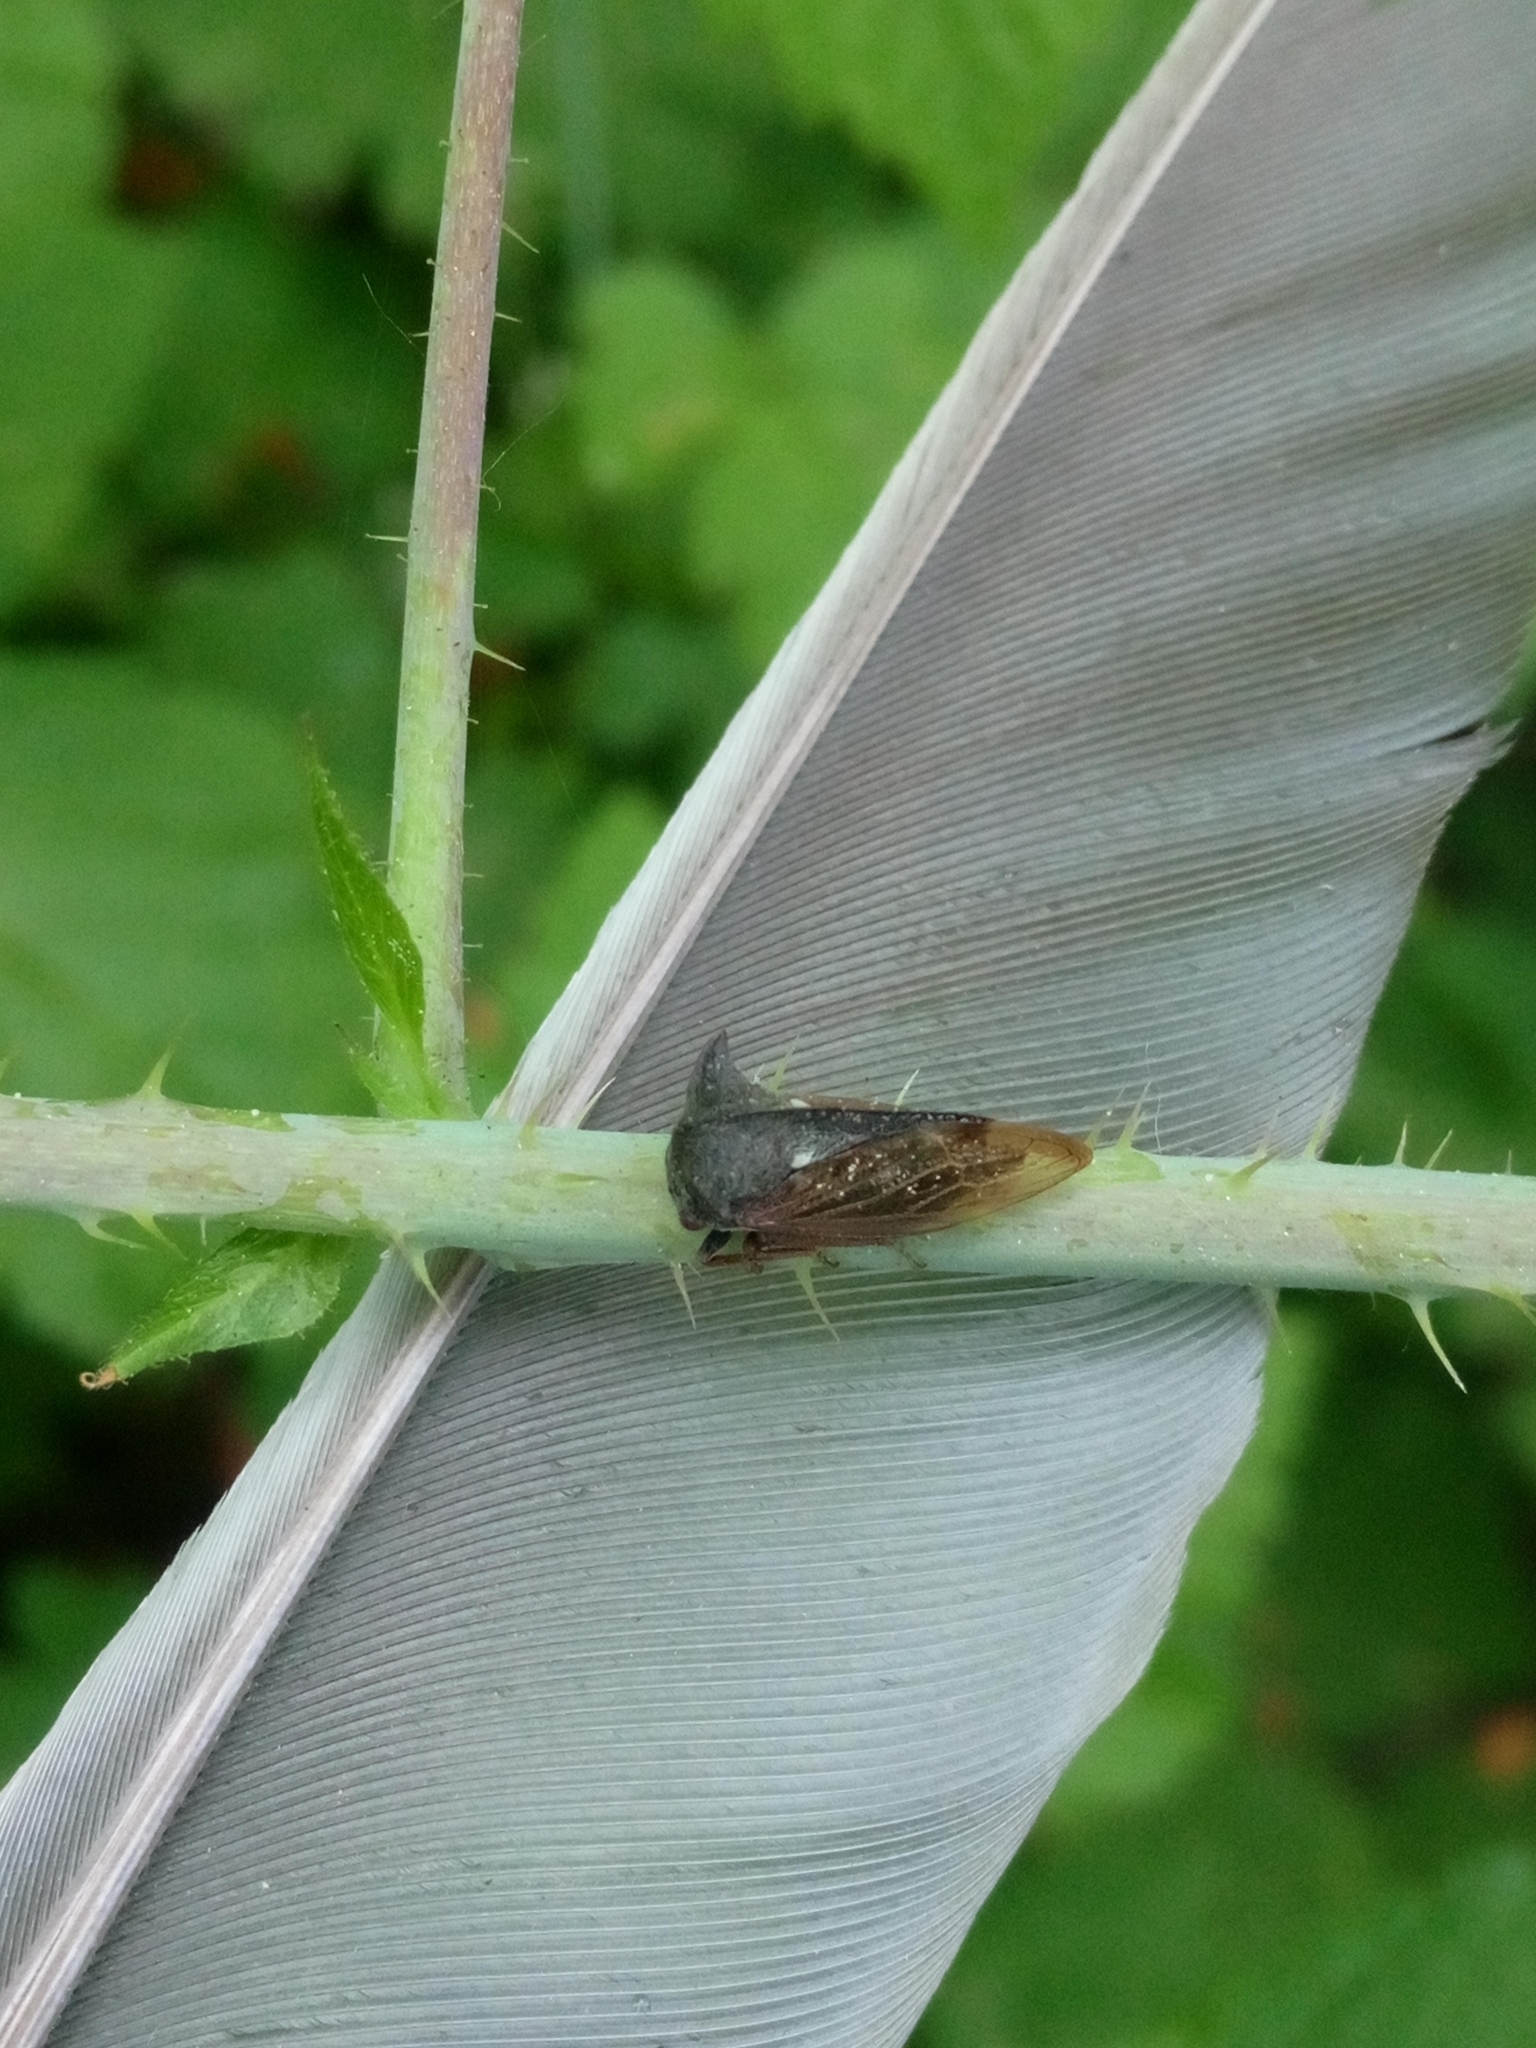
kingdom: Animalia
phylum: Arthropoda
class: Insecta
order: Hemiptera
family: Membracidae
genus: Centrotus
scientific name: Centrotus cornuta
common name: Treehopper
